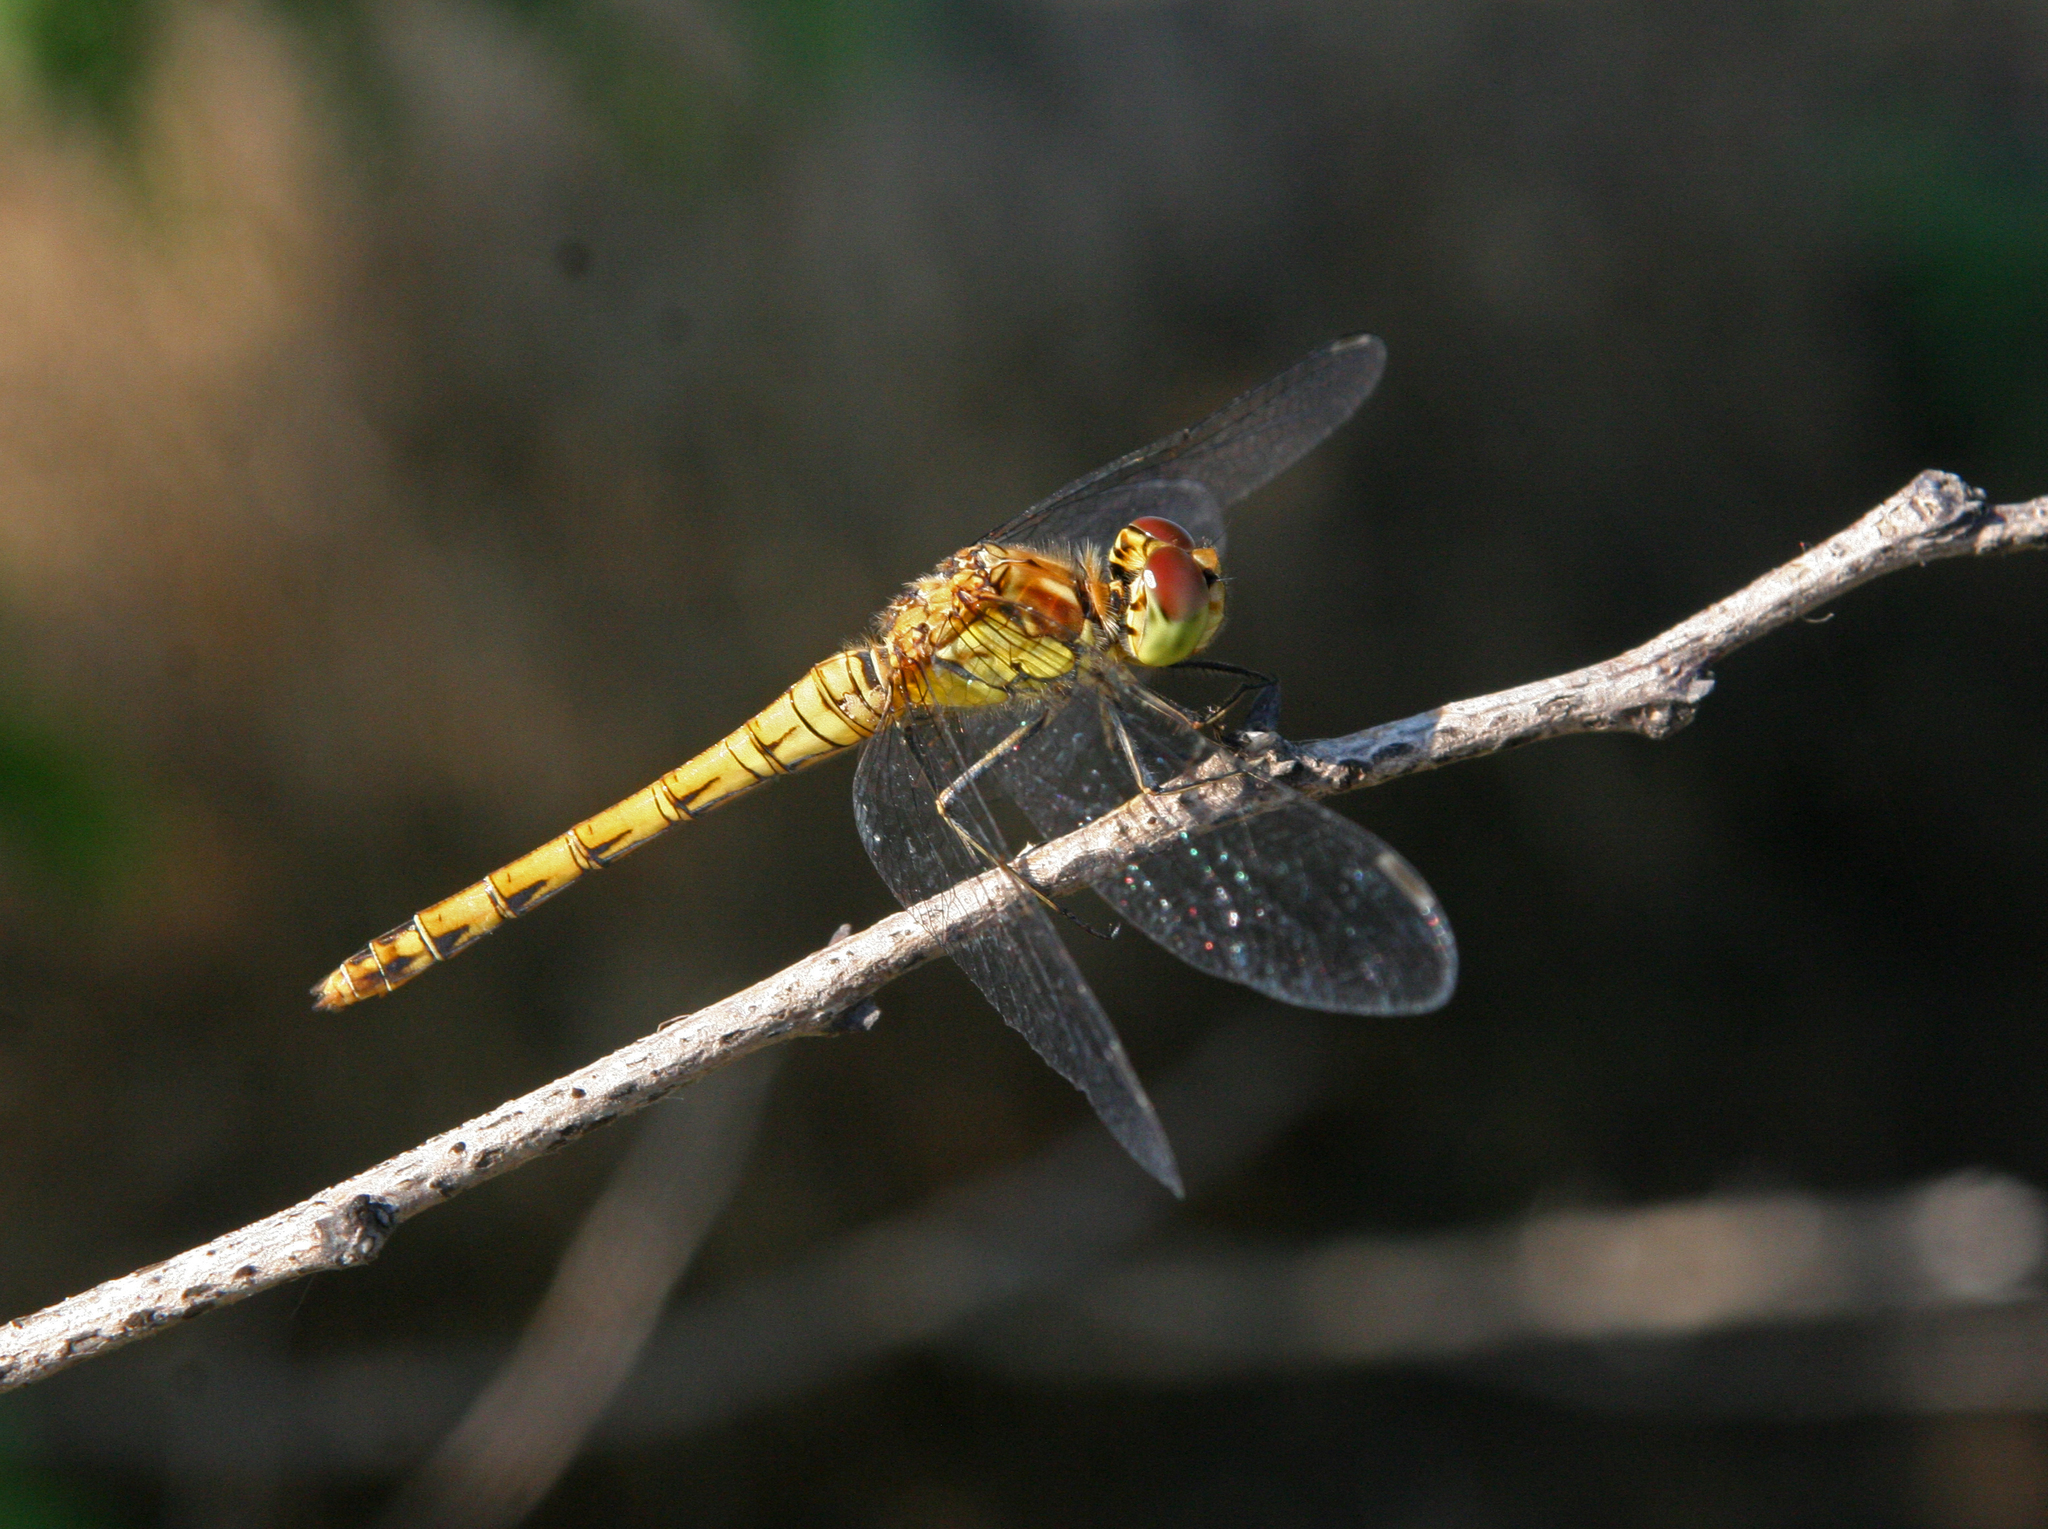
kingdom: Animalia
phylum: Arthropoda
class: Insecta
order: Odonata
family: Libellulidae
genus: Sympetrum
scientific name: Sympetrum striolatum
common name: Common darter
